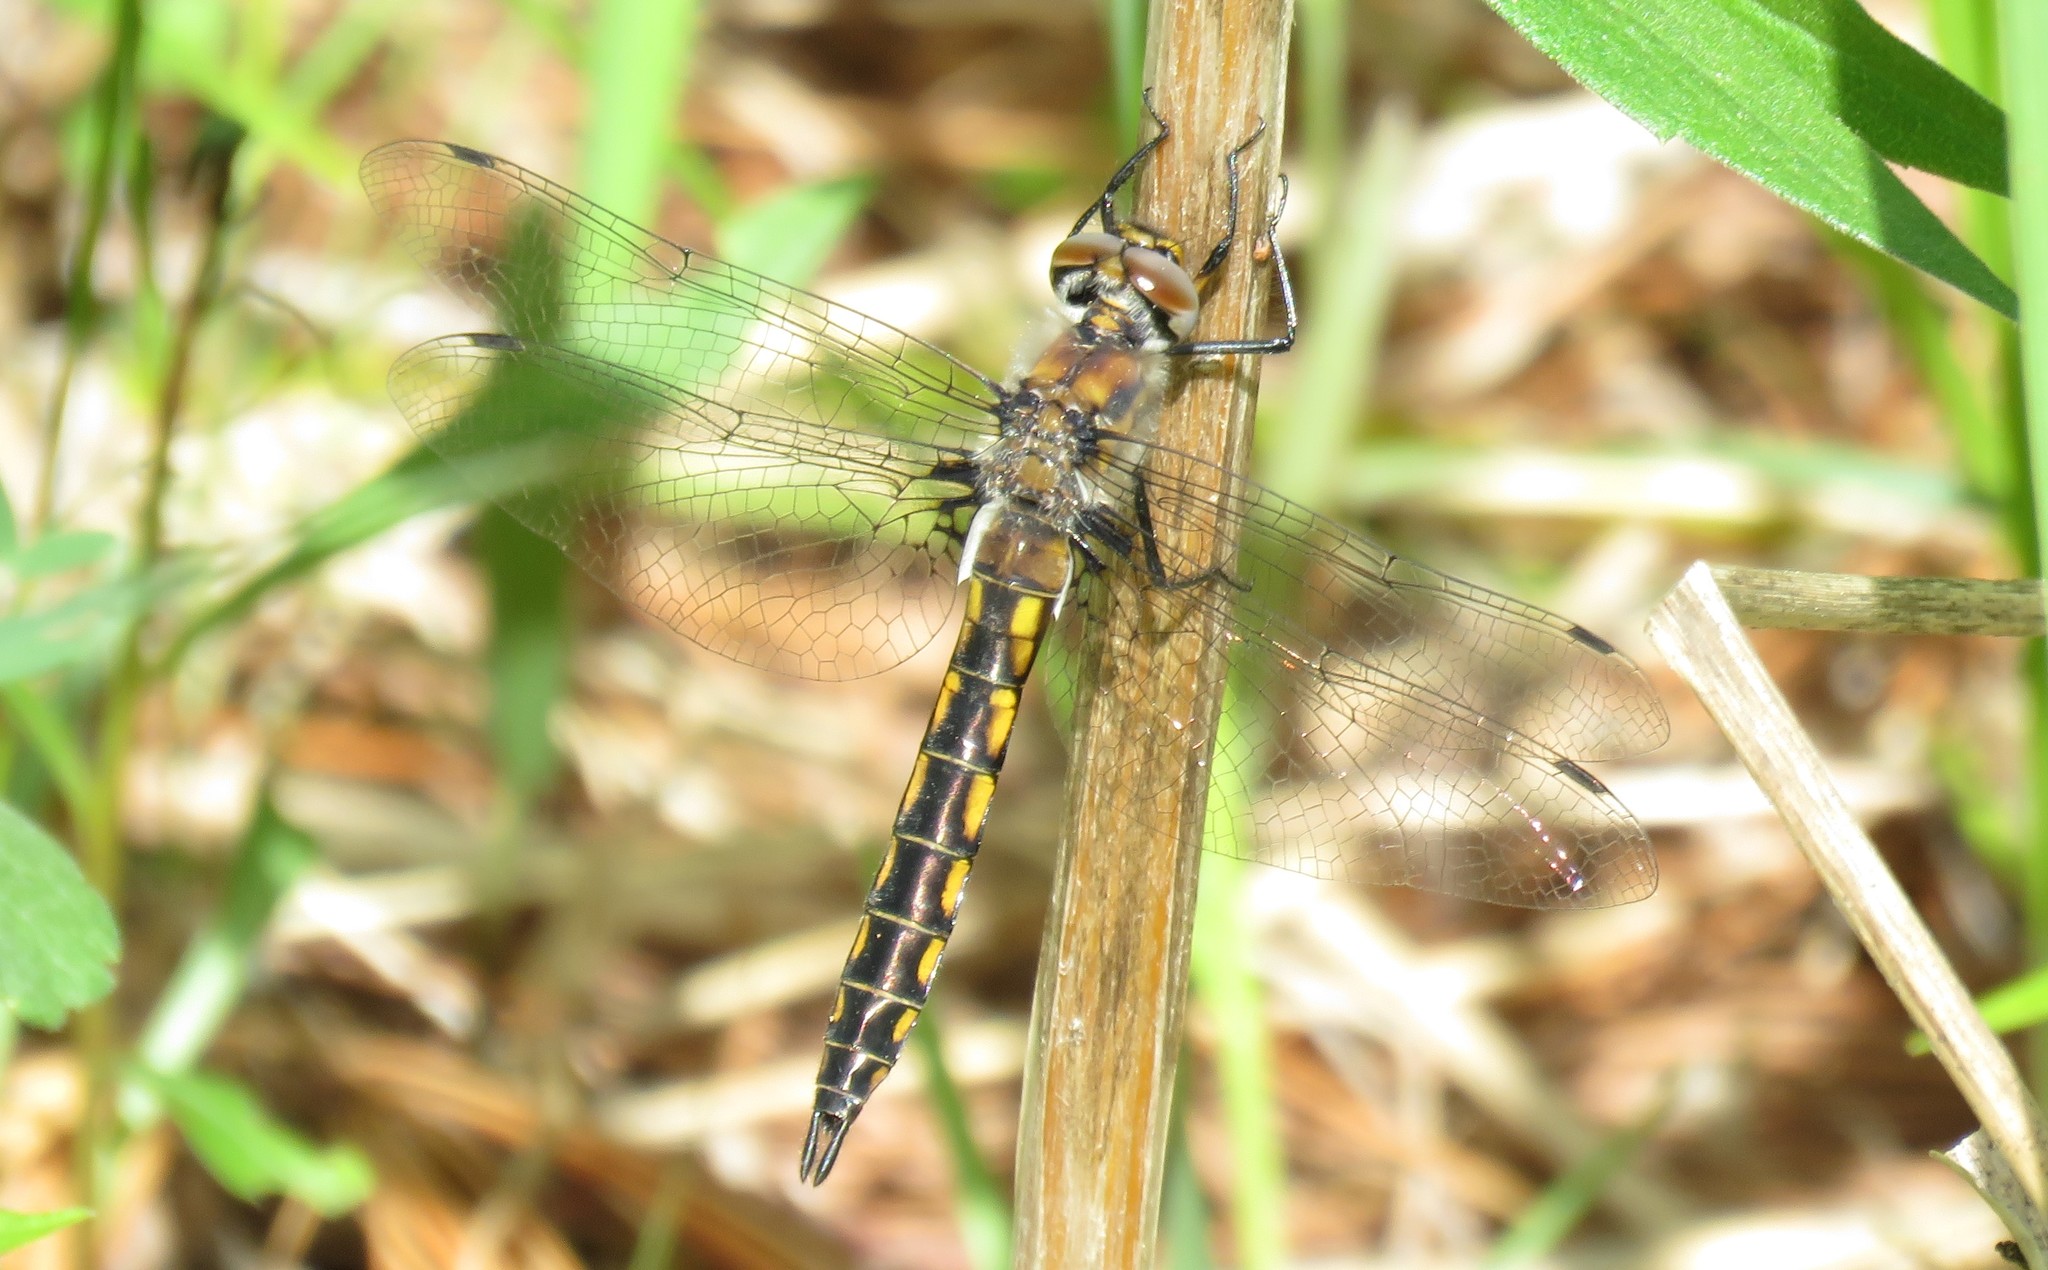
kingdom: Animalia
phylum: Arthropoda
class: Insecta
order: Odonata
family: Corduliidae
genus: Epitheca
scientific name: Epitheca spinigera
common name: Spiny baskettail
